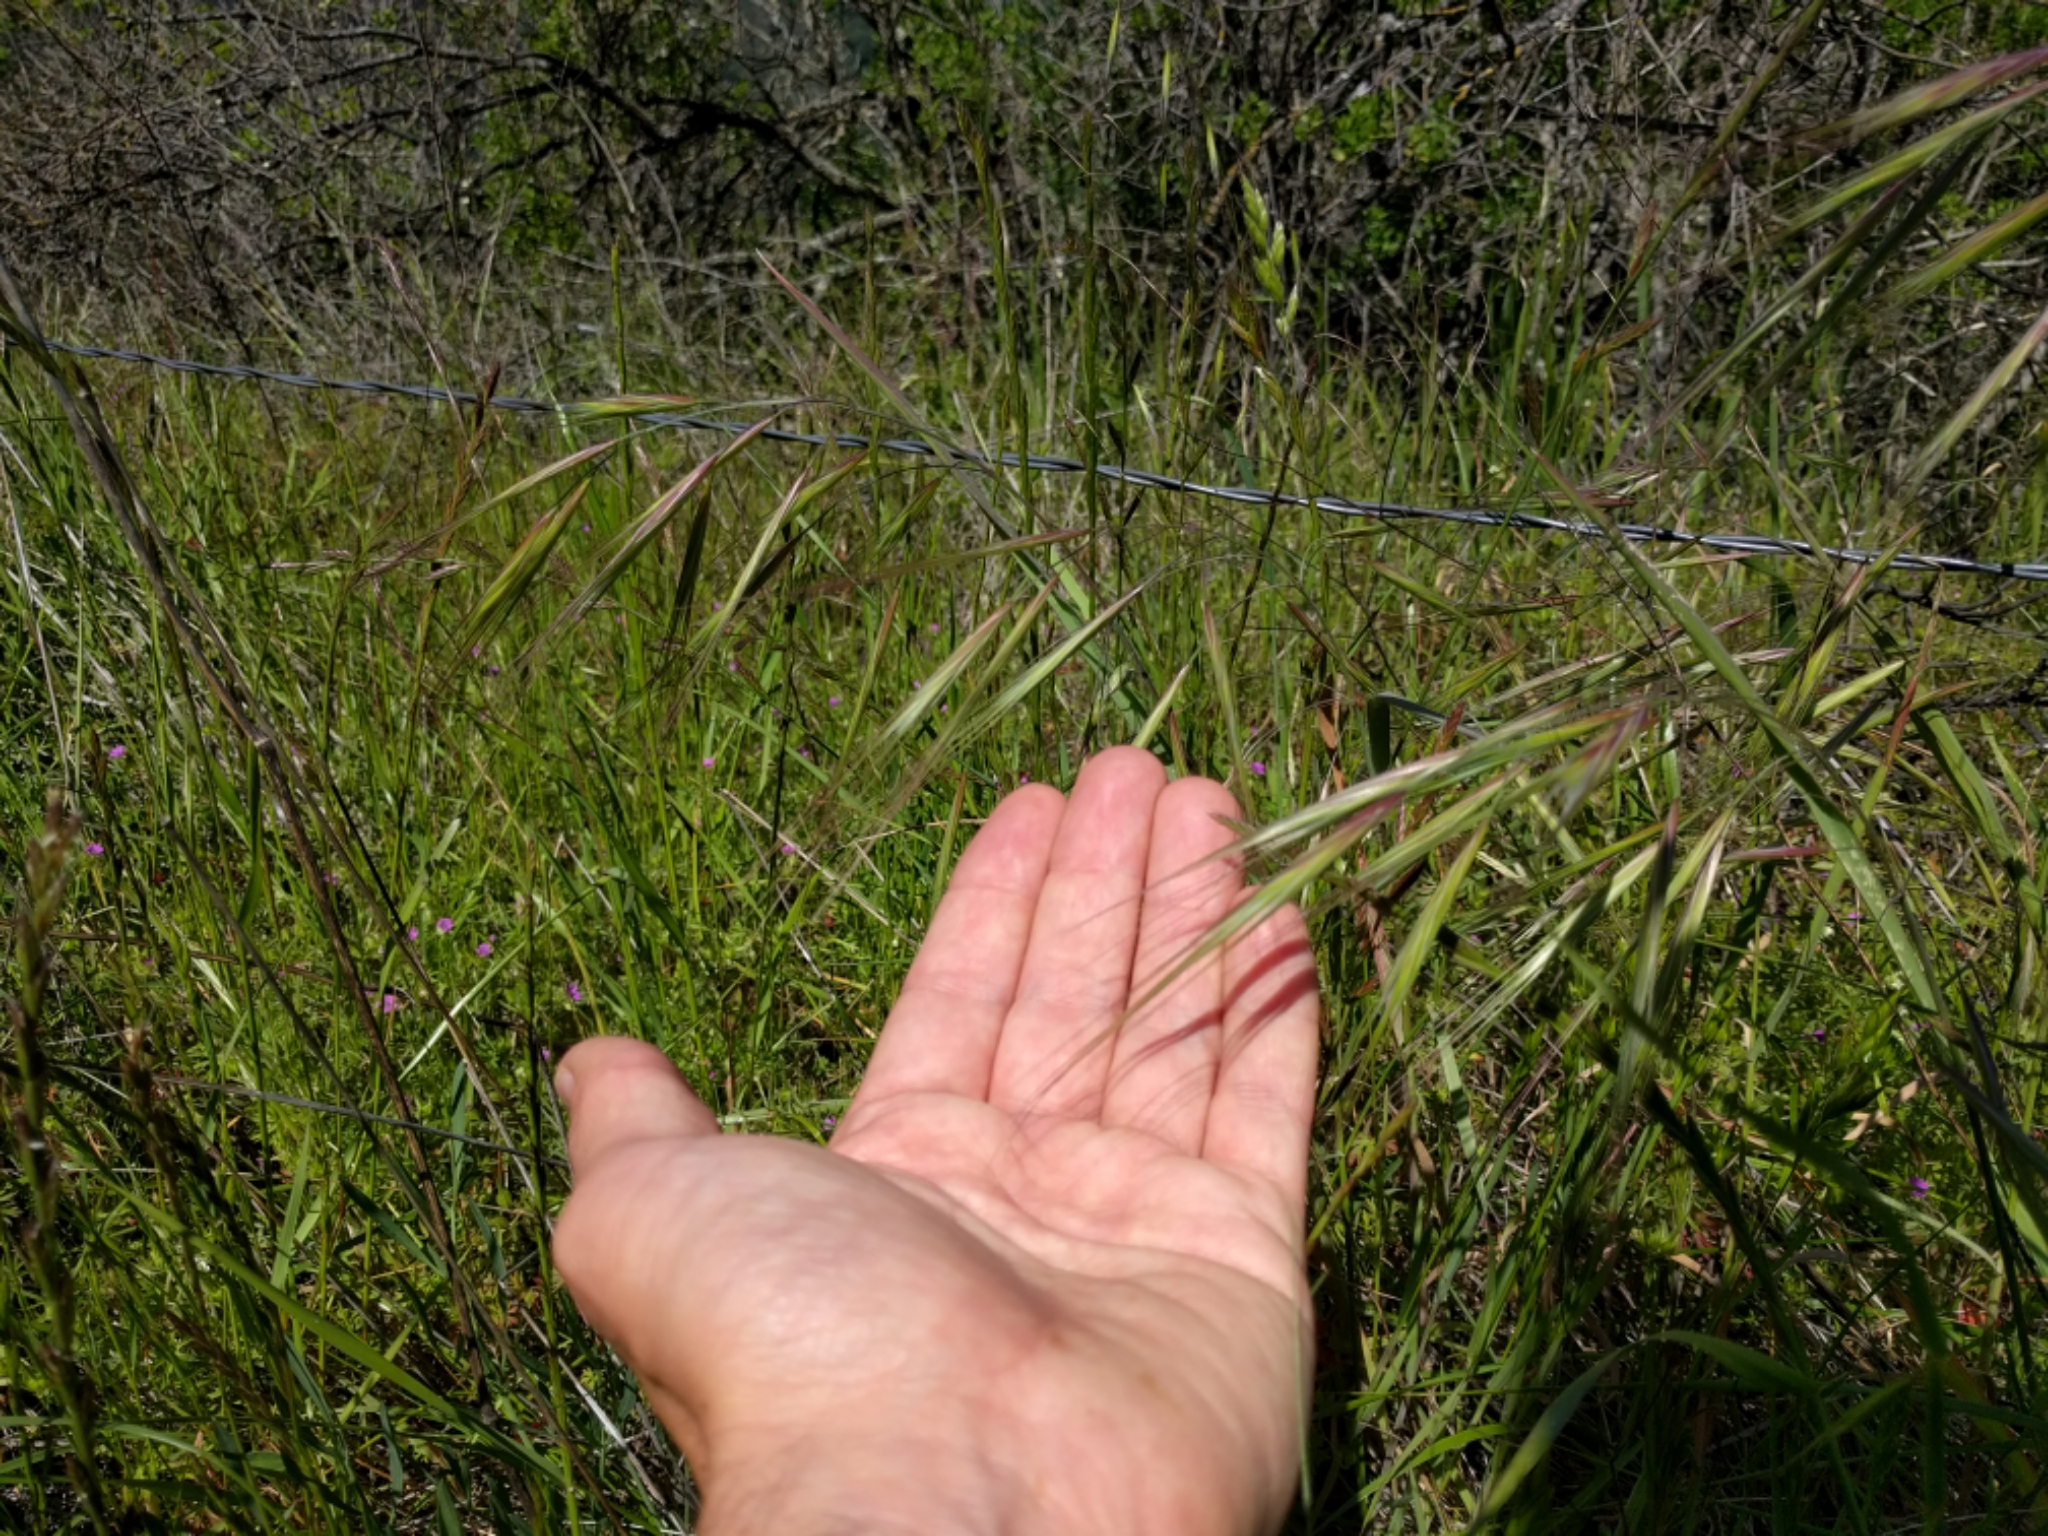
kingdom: Plantae
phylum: Tracheophyta
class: Liliopsida
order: Poales
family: Poaceae
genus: Bromus
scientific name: Bromus diandrus
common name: Ripgut brome
